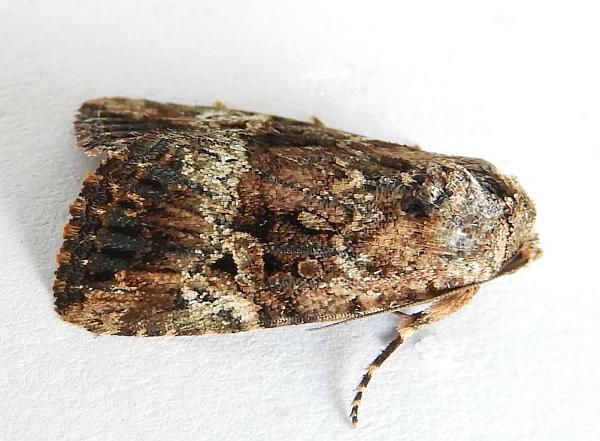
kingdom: Animalia
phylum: Arthropoda
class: Insecta
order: Lepidoptera
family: Noctuidae
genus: Elaphria
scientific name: Elaphria exesa
